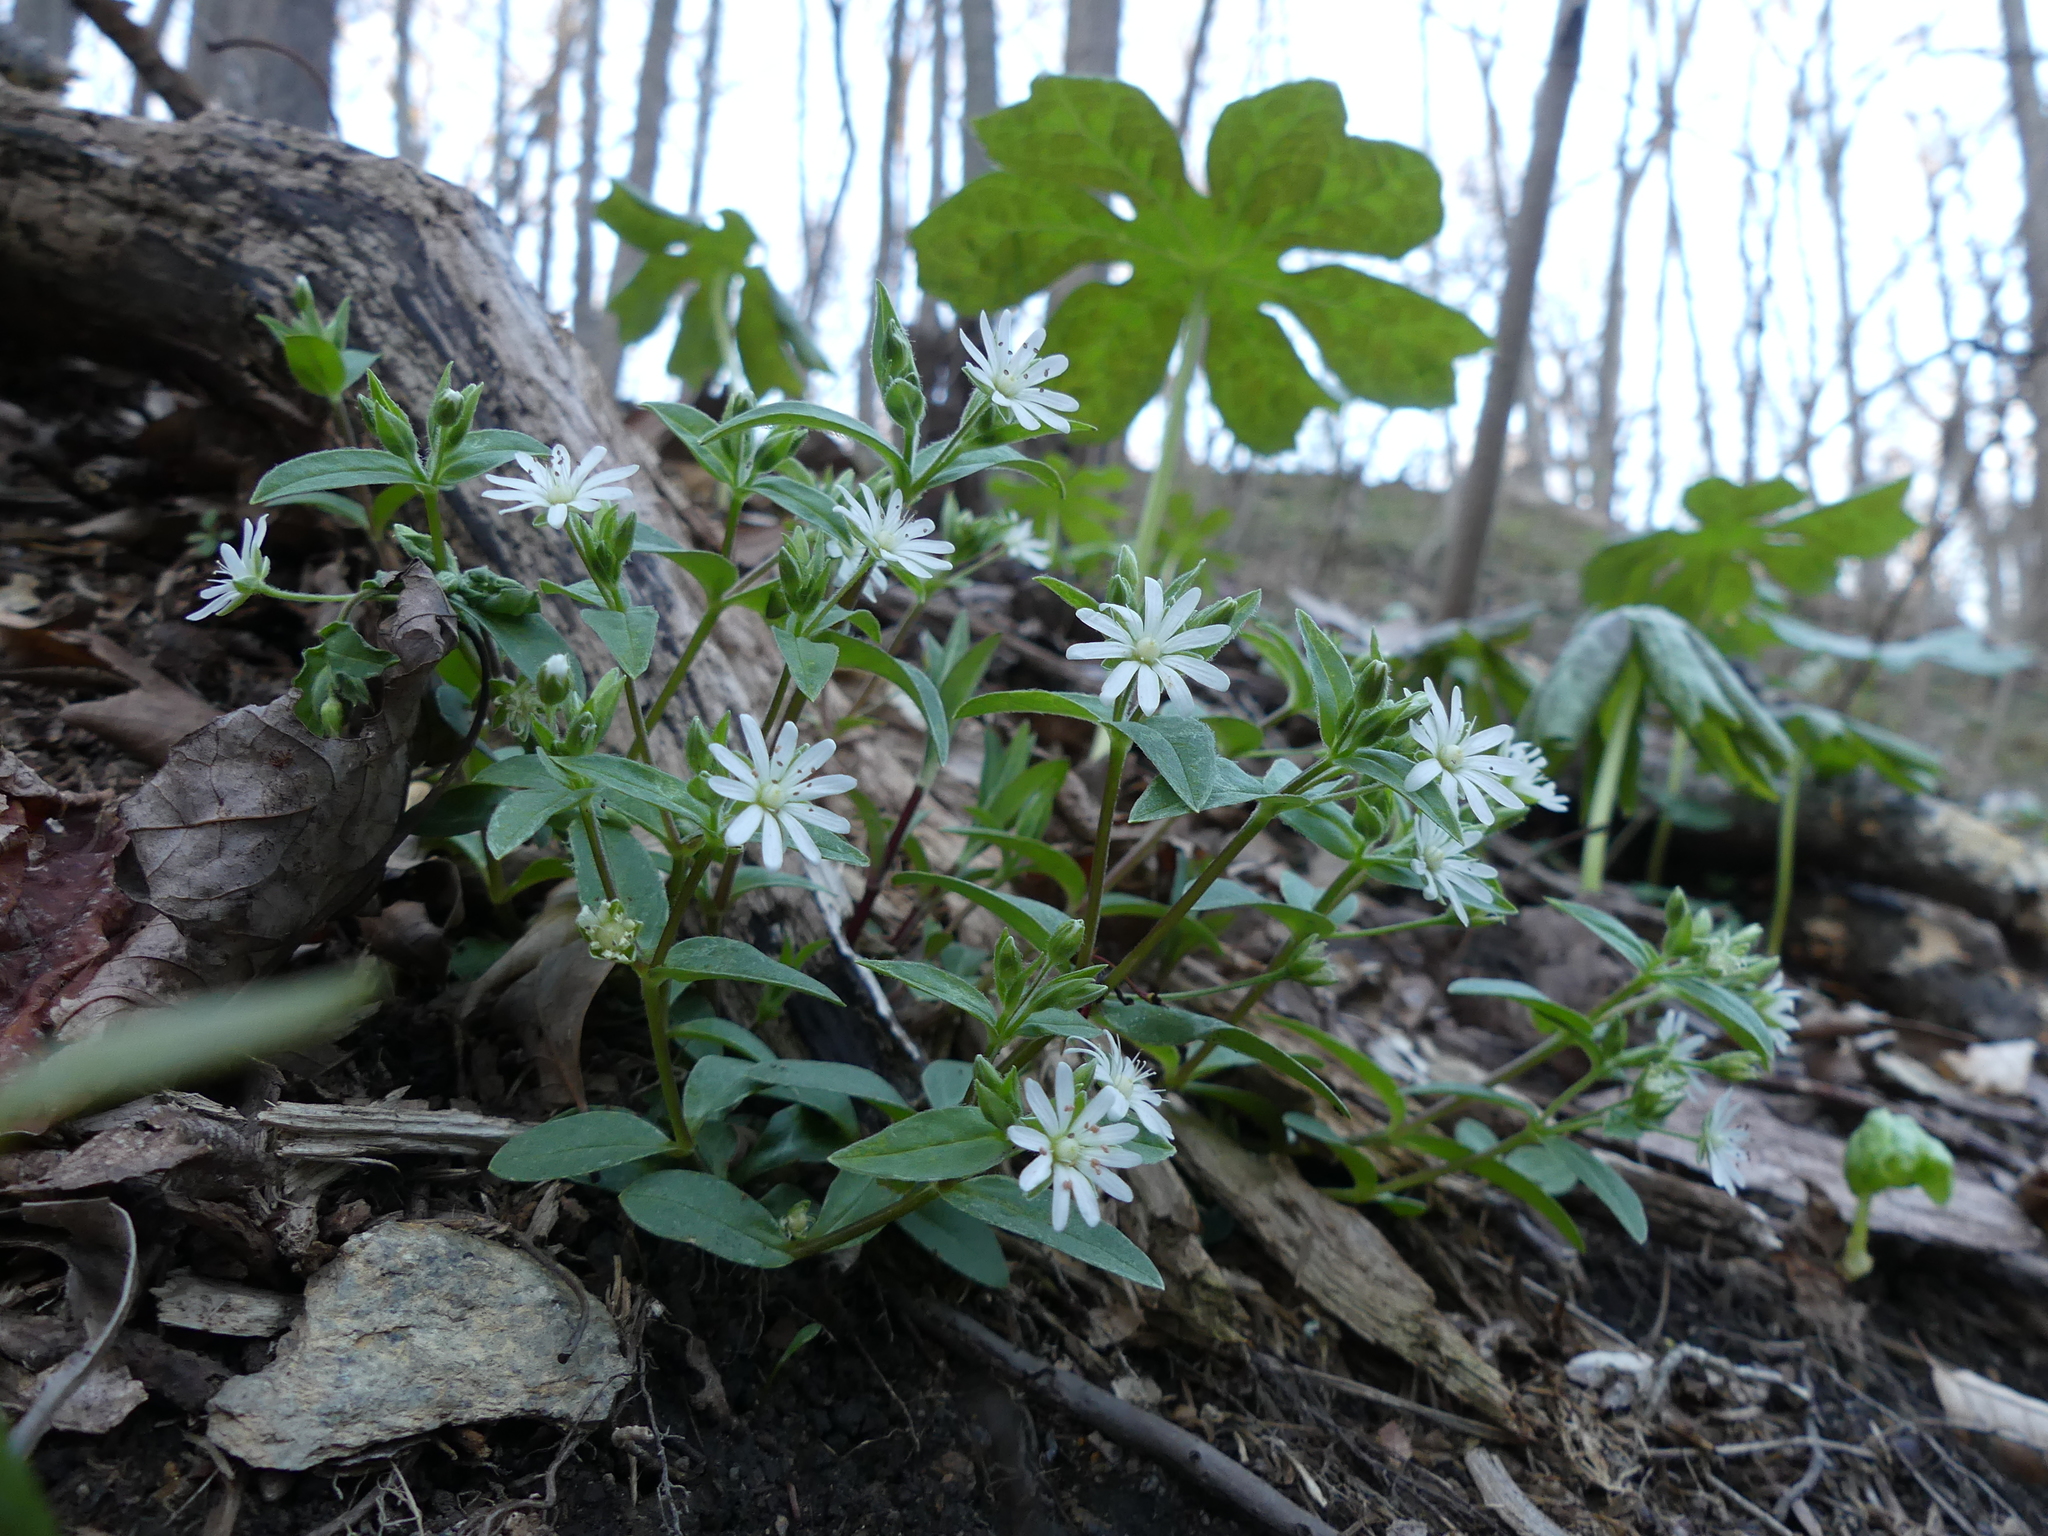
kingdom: Plantae
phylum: Tracheophyta
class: Magnoliopsida
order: Caryophyllales
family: Caryophyllaceae
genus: Stellaria
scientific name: Stellaria pubera
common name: Star chickweed
